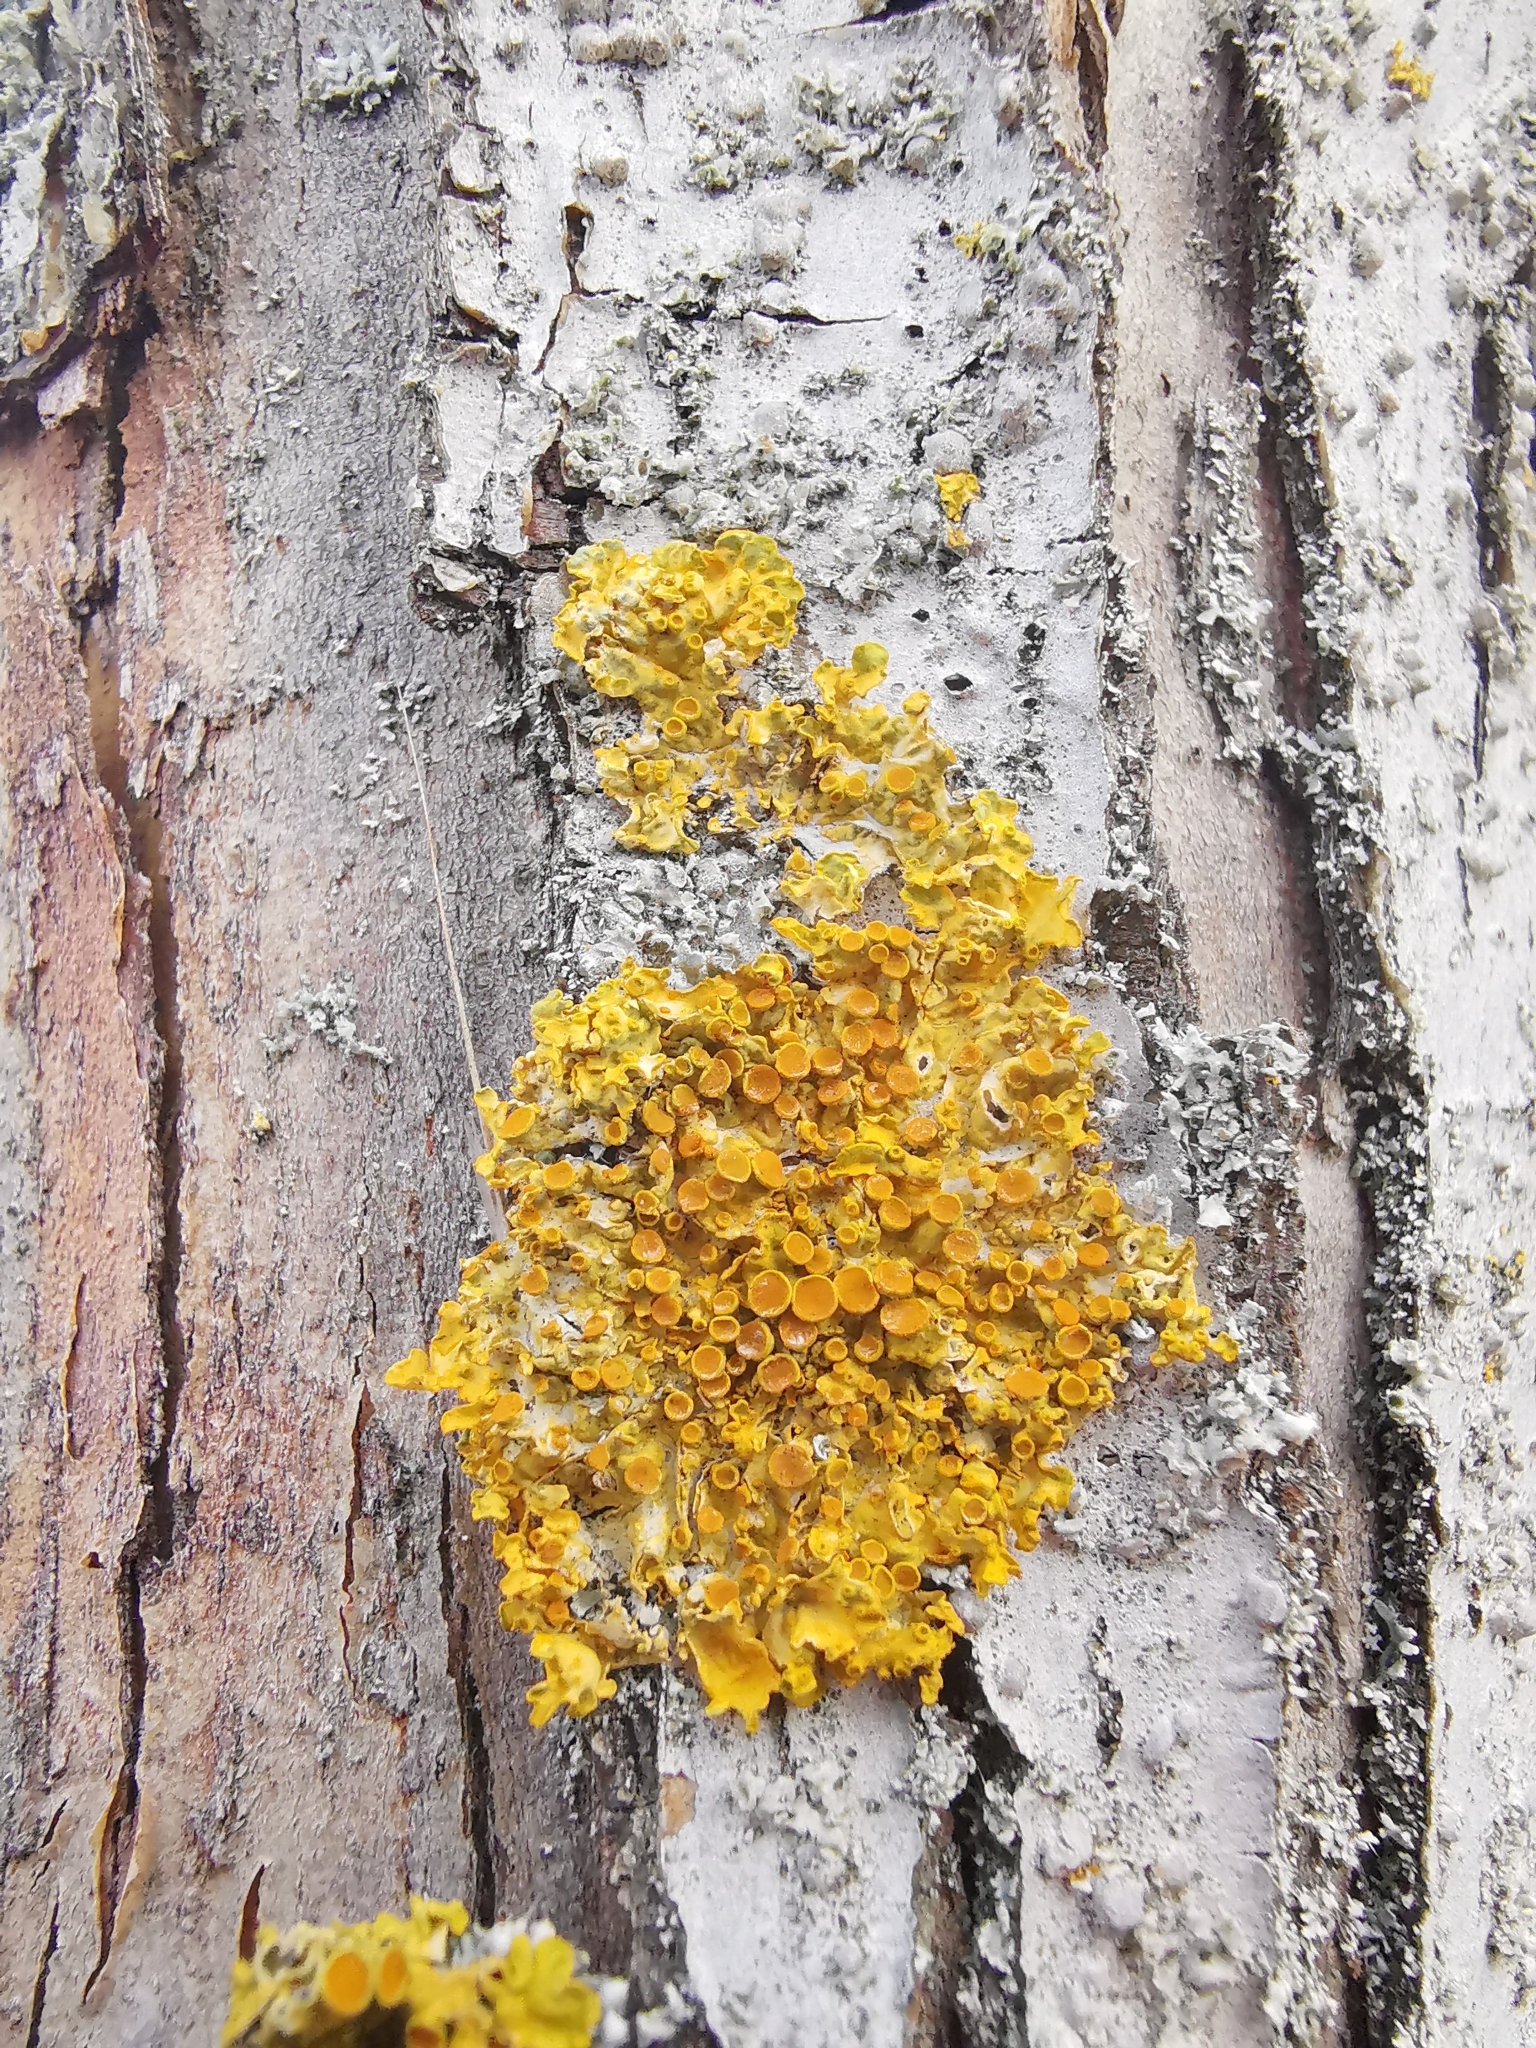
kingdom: Fungi
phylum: Ascomycota
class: Lecanoromycetes
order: Teloschistales
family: Teloschistaceae
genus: Xanthoria
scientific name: Xanthoria parietina
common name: Common orange lichen
